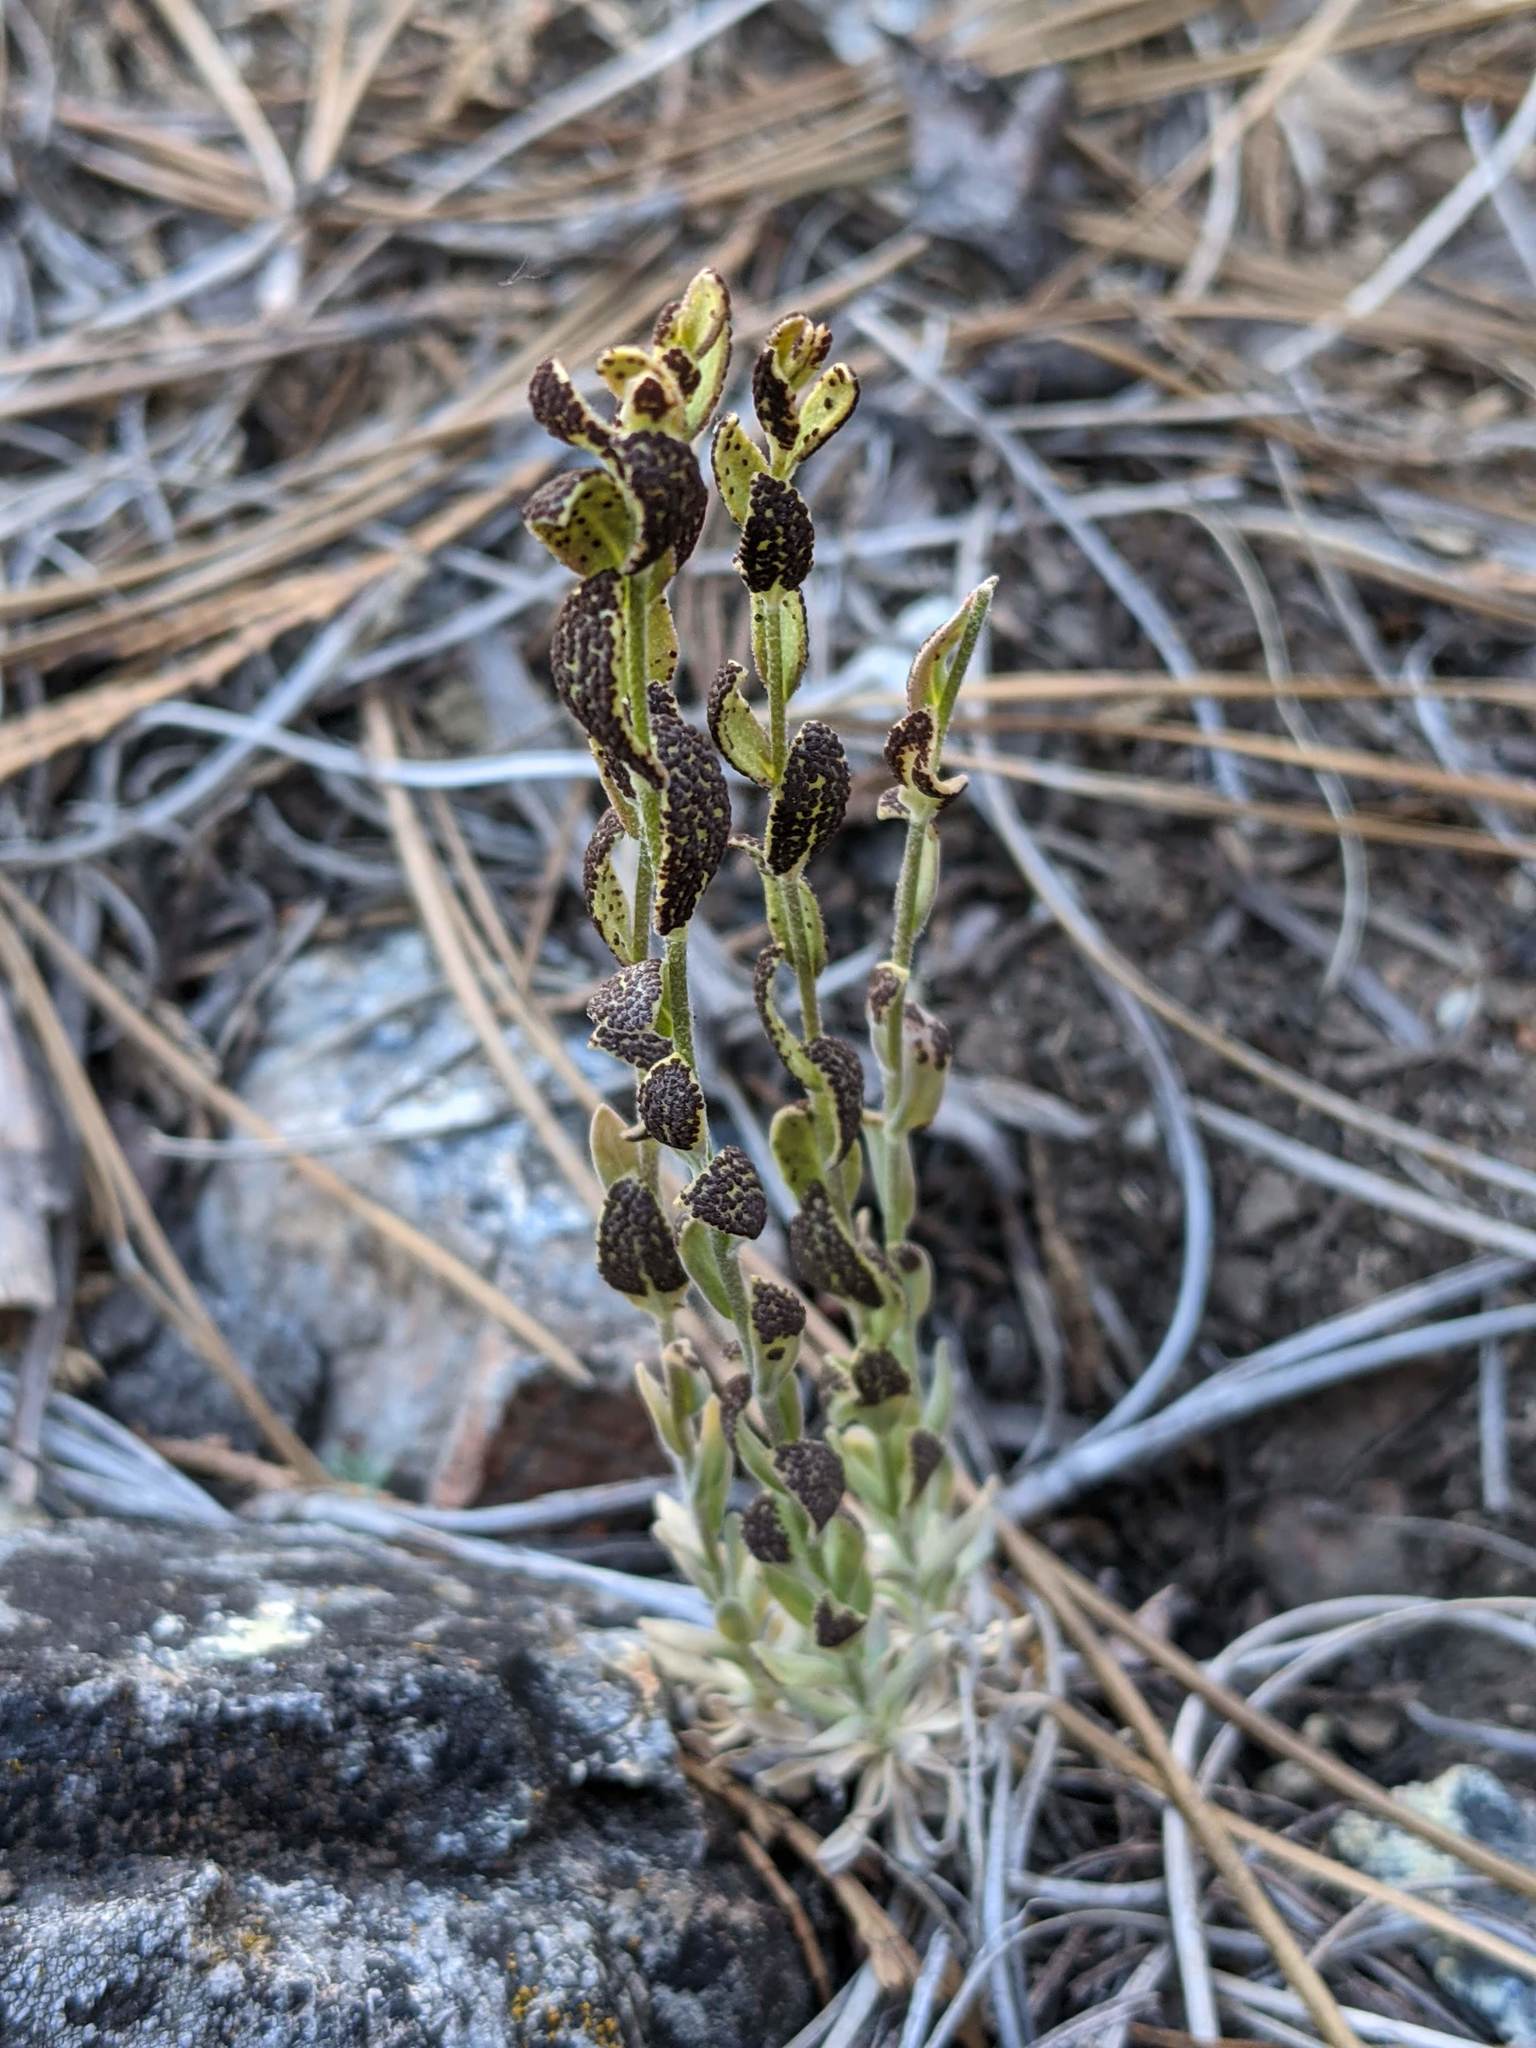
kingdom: Fungi
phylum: Basidiomycota
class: Pucciniomycetes
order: Pucciniales
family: Pucciniaceae
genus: Puccinia
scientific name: Puccinia monoica
